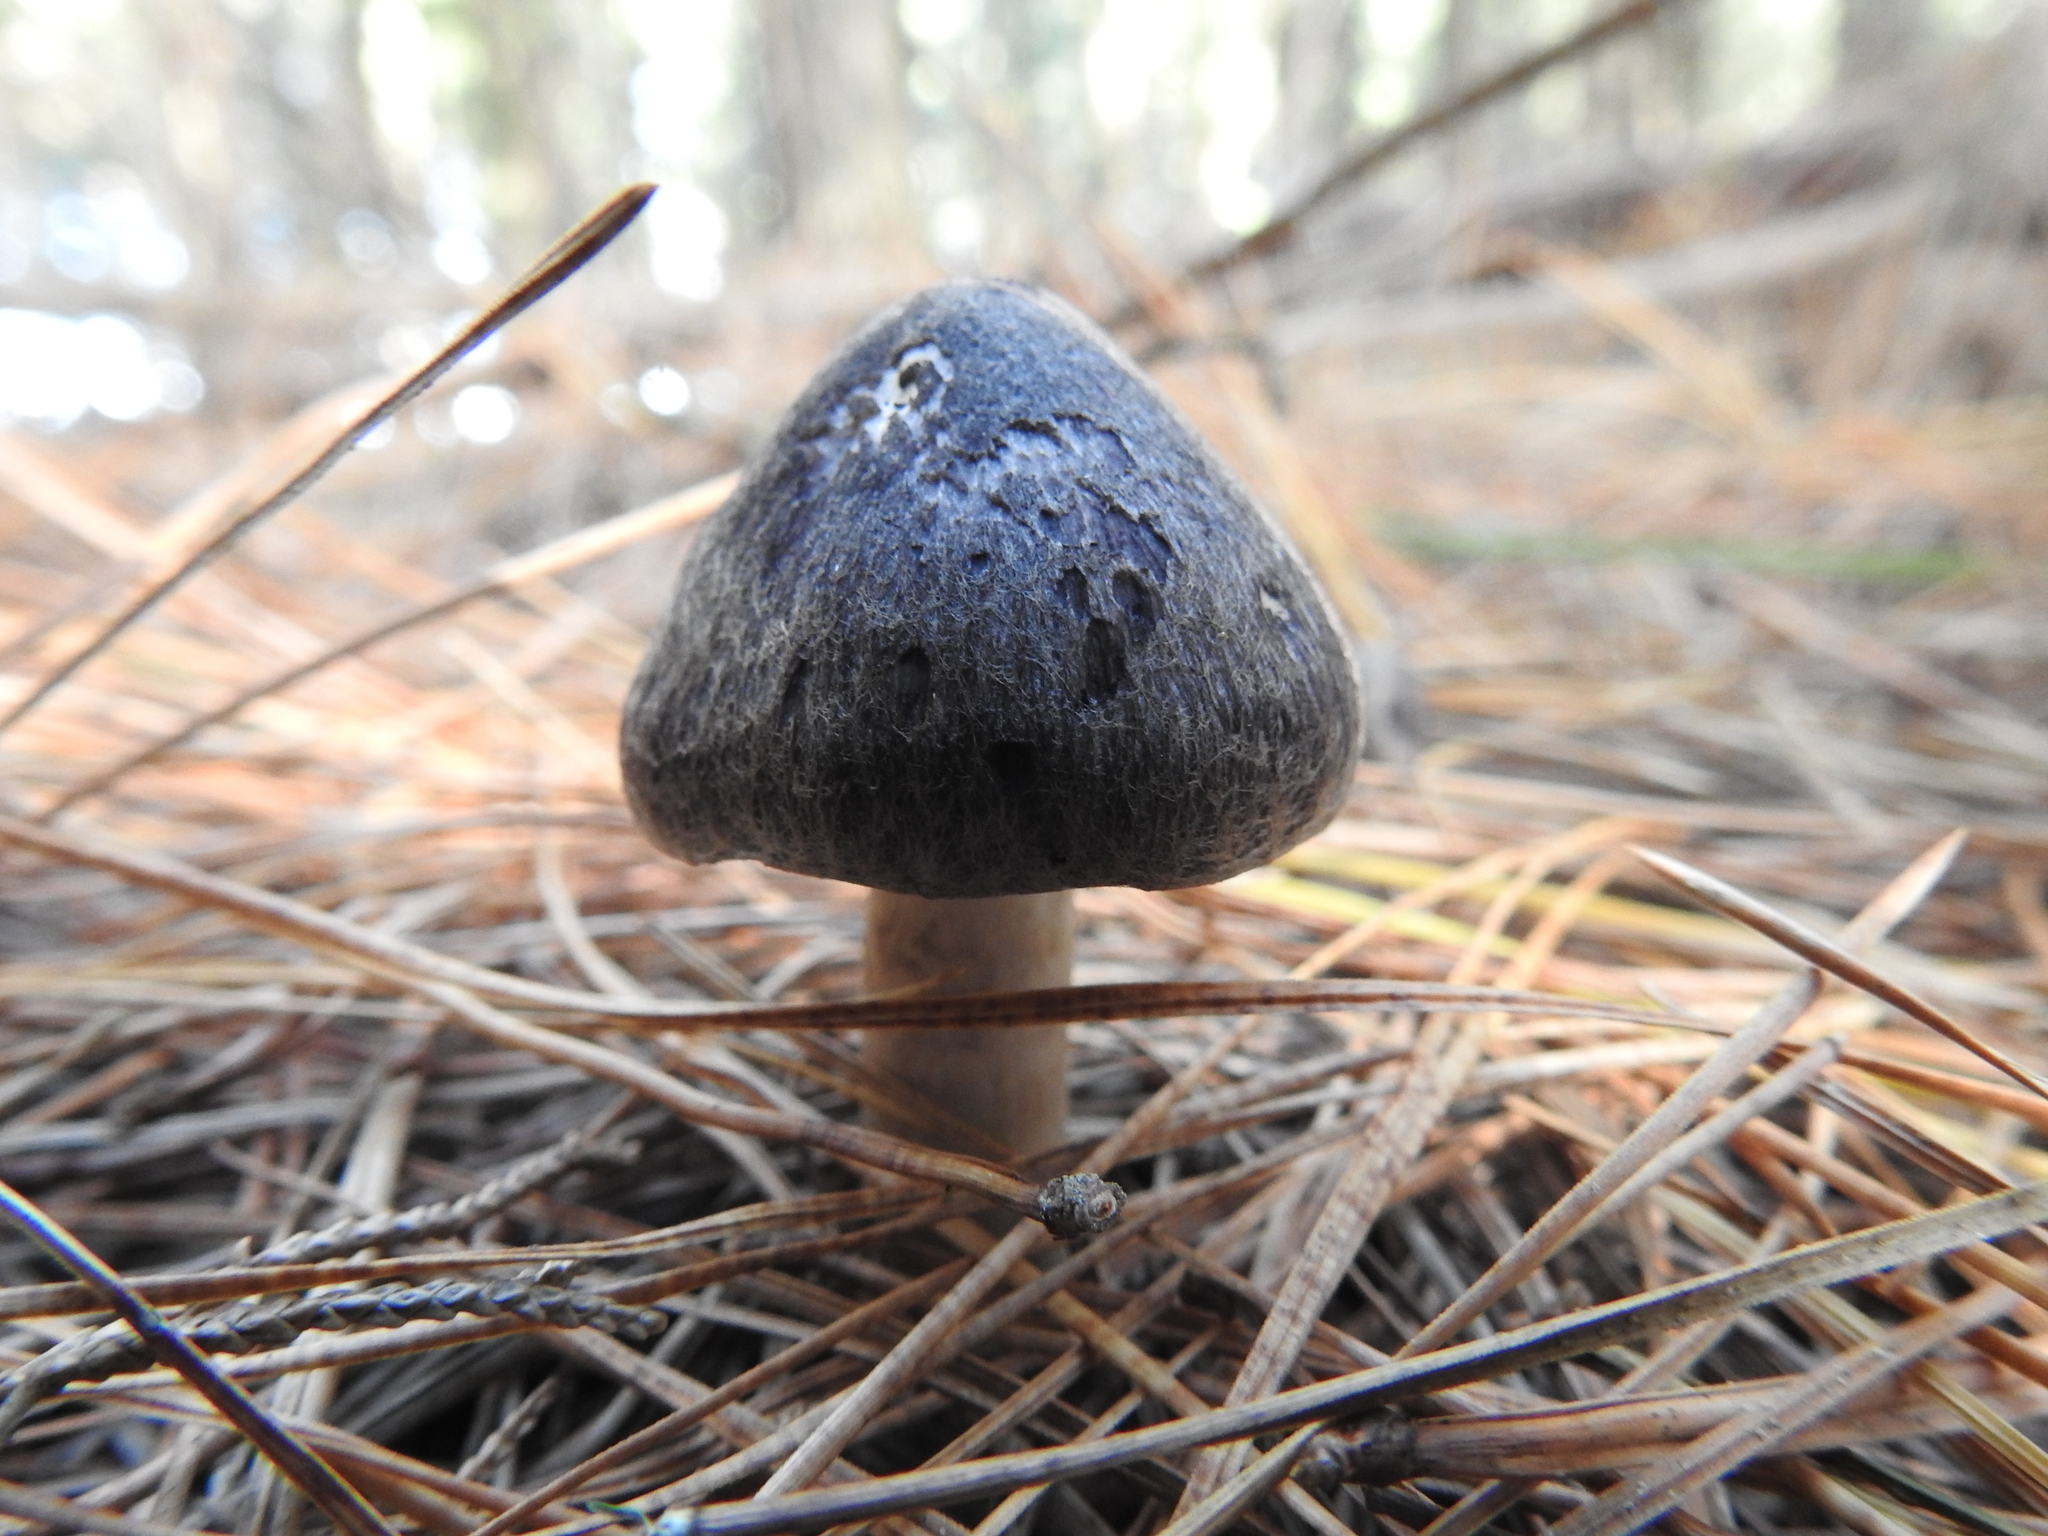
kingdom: Fungi
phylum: Basidiomycota
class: Agaricomycetes
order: Agaricales
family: Tricholomataceae
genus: Tricholoma
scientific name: Tricholoma terreum
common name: Grey knight
